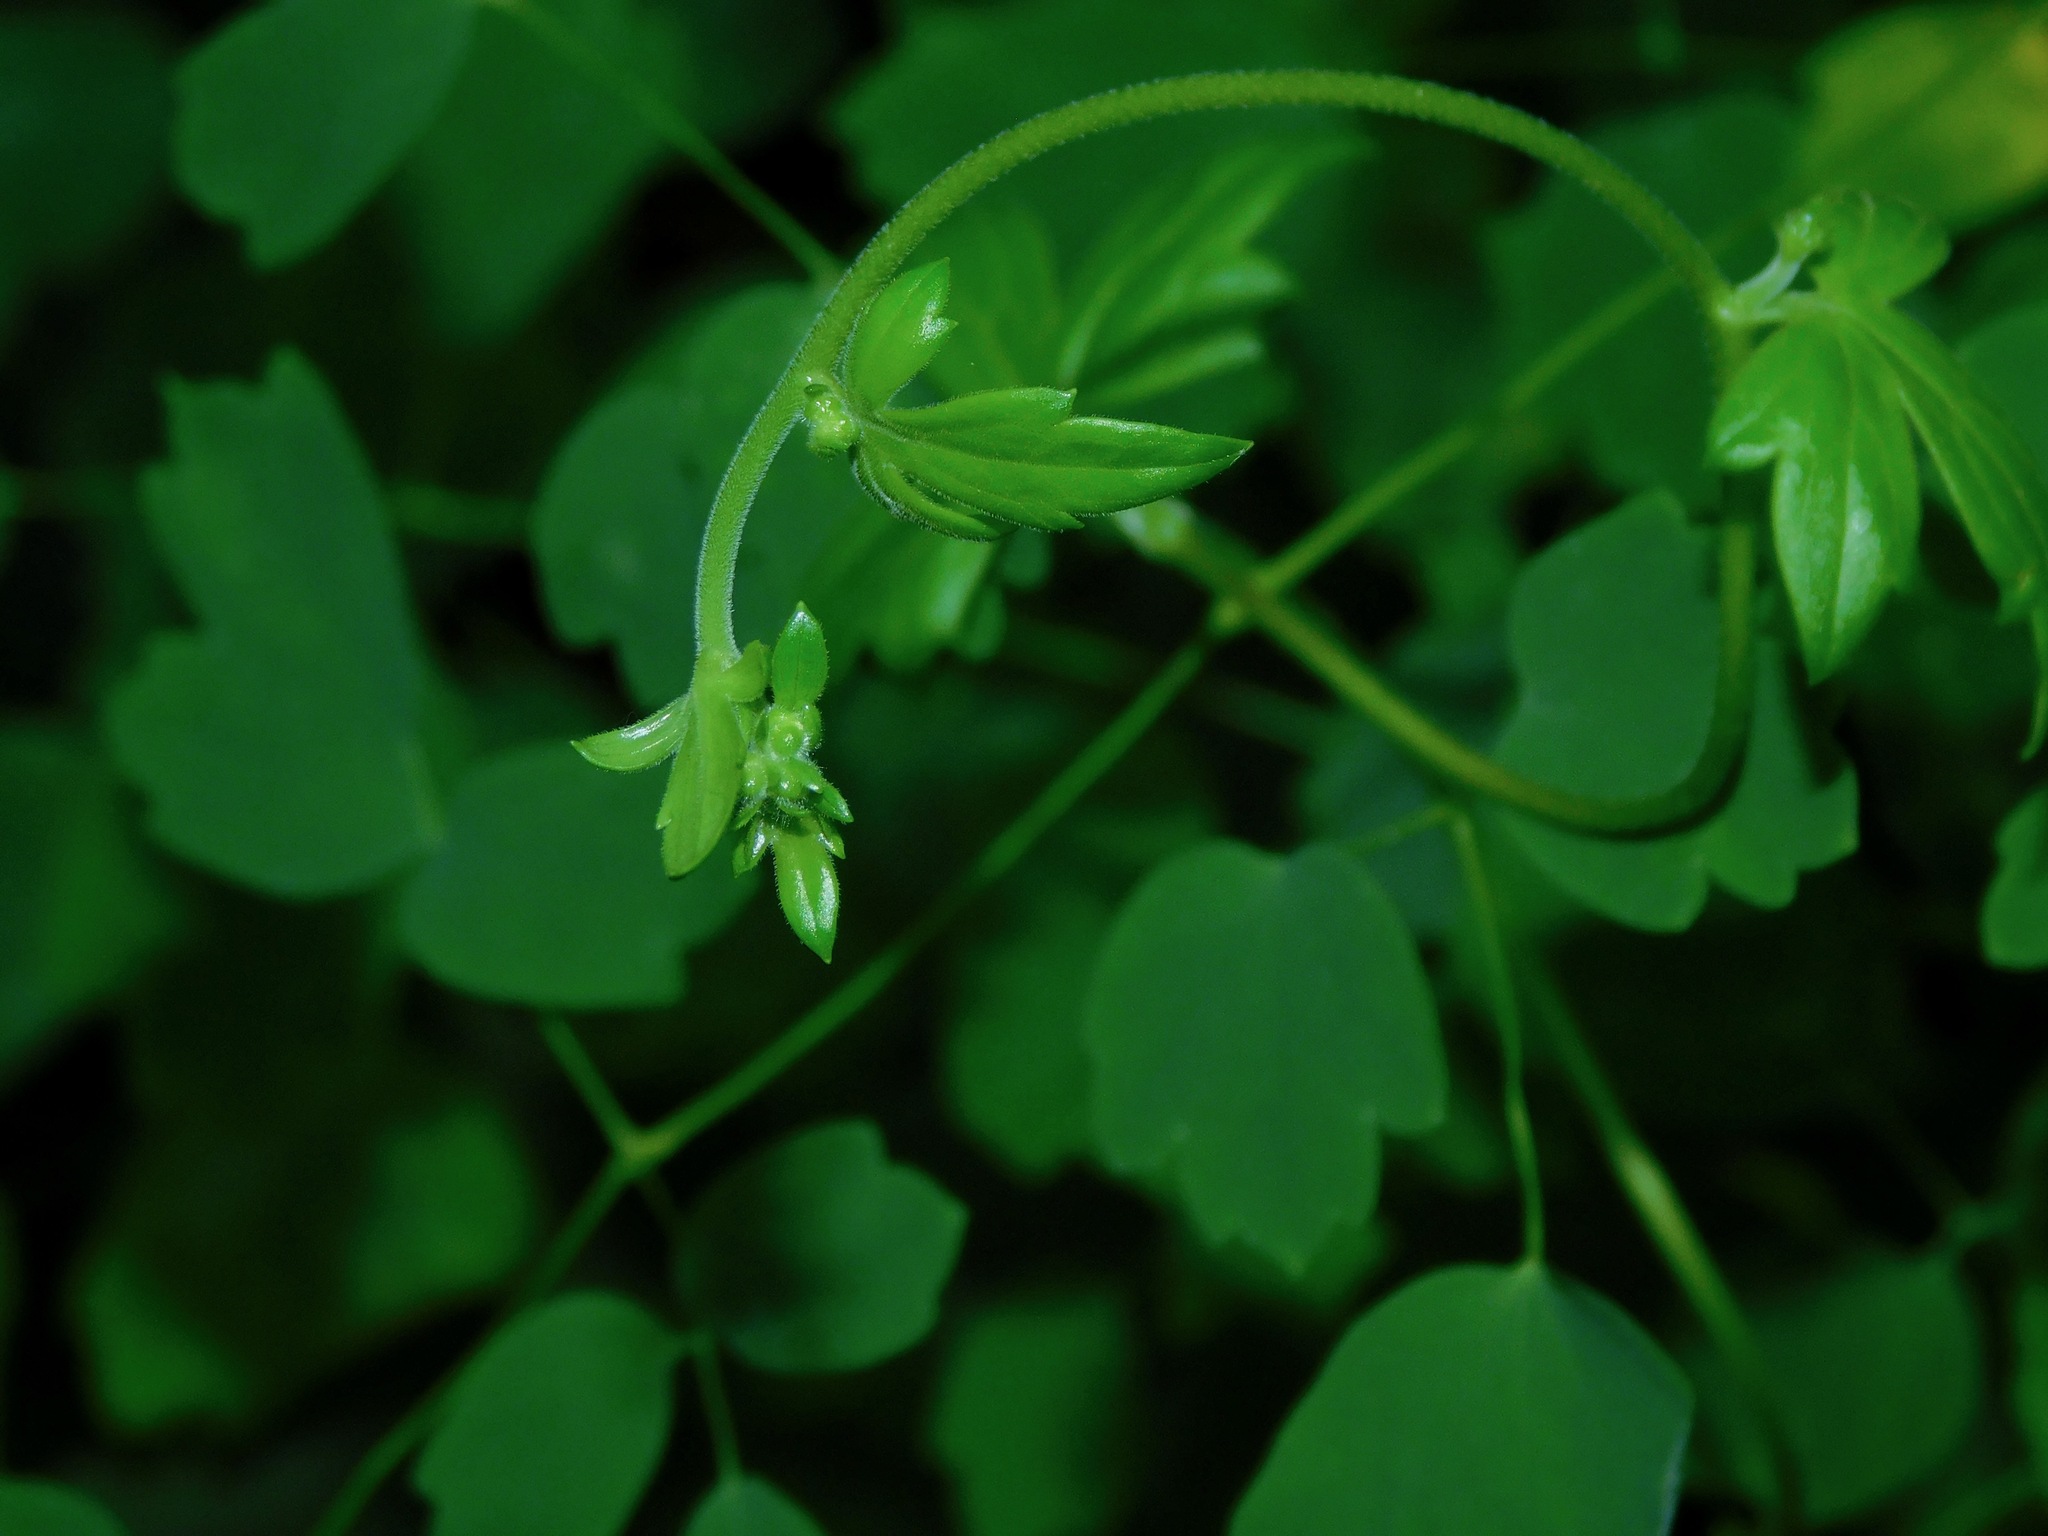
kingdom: Plantae
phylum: Tracheophyta
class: Magnoliopsida
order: Ranunculales
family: Ranunculaceae
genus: Aconitum
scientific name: Aconitum reclinatum
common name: Trailing wolfsbane
